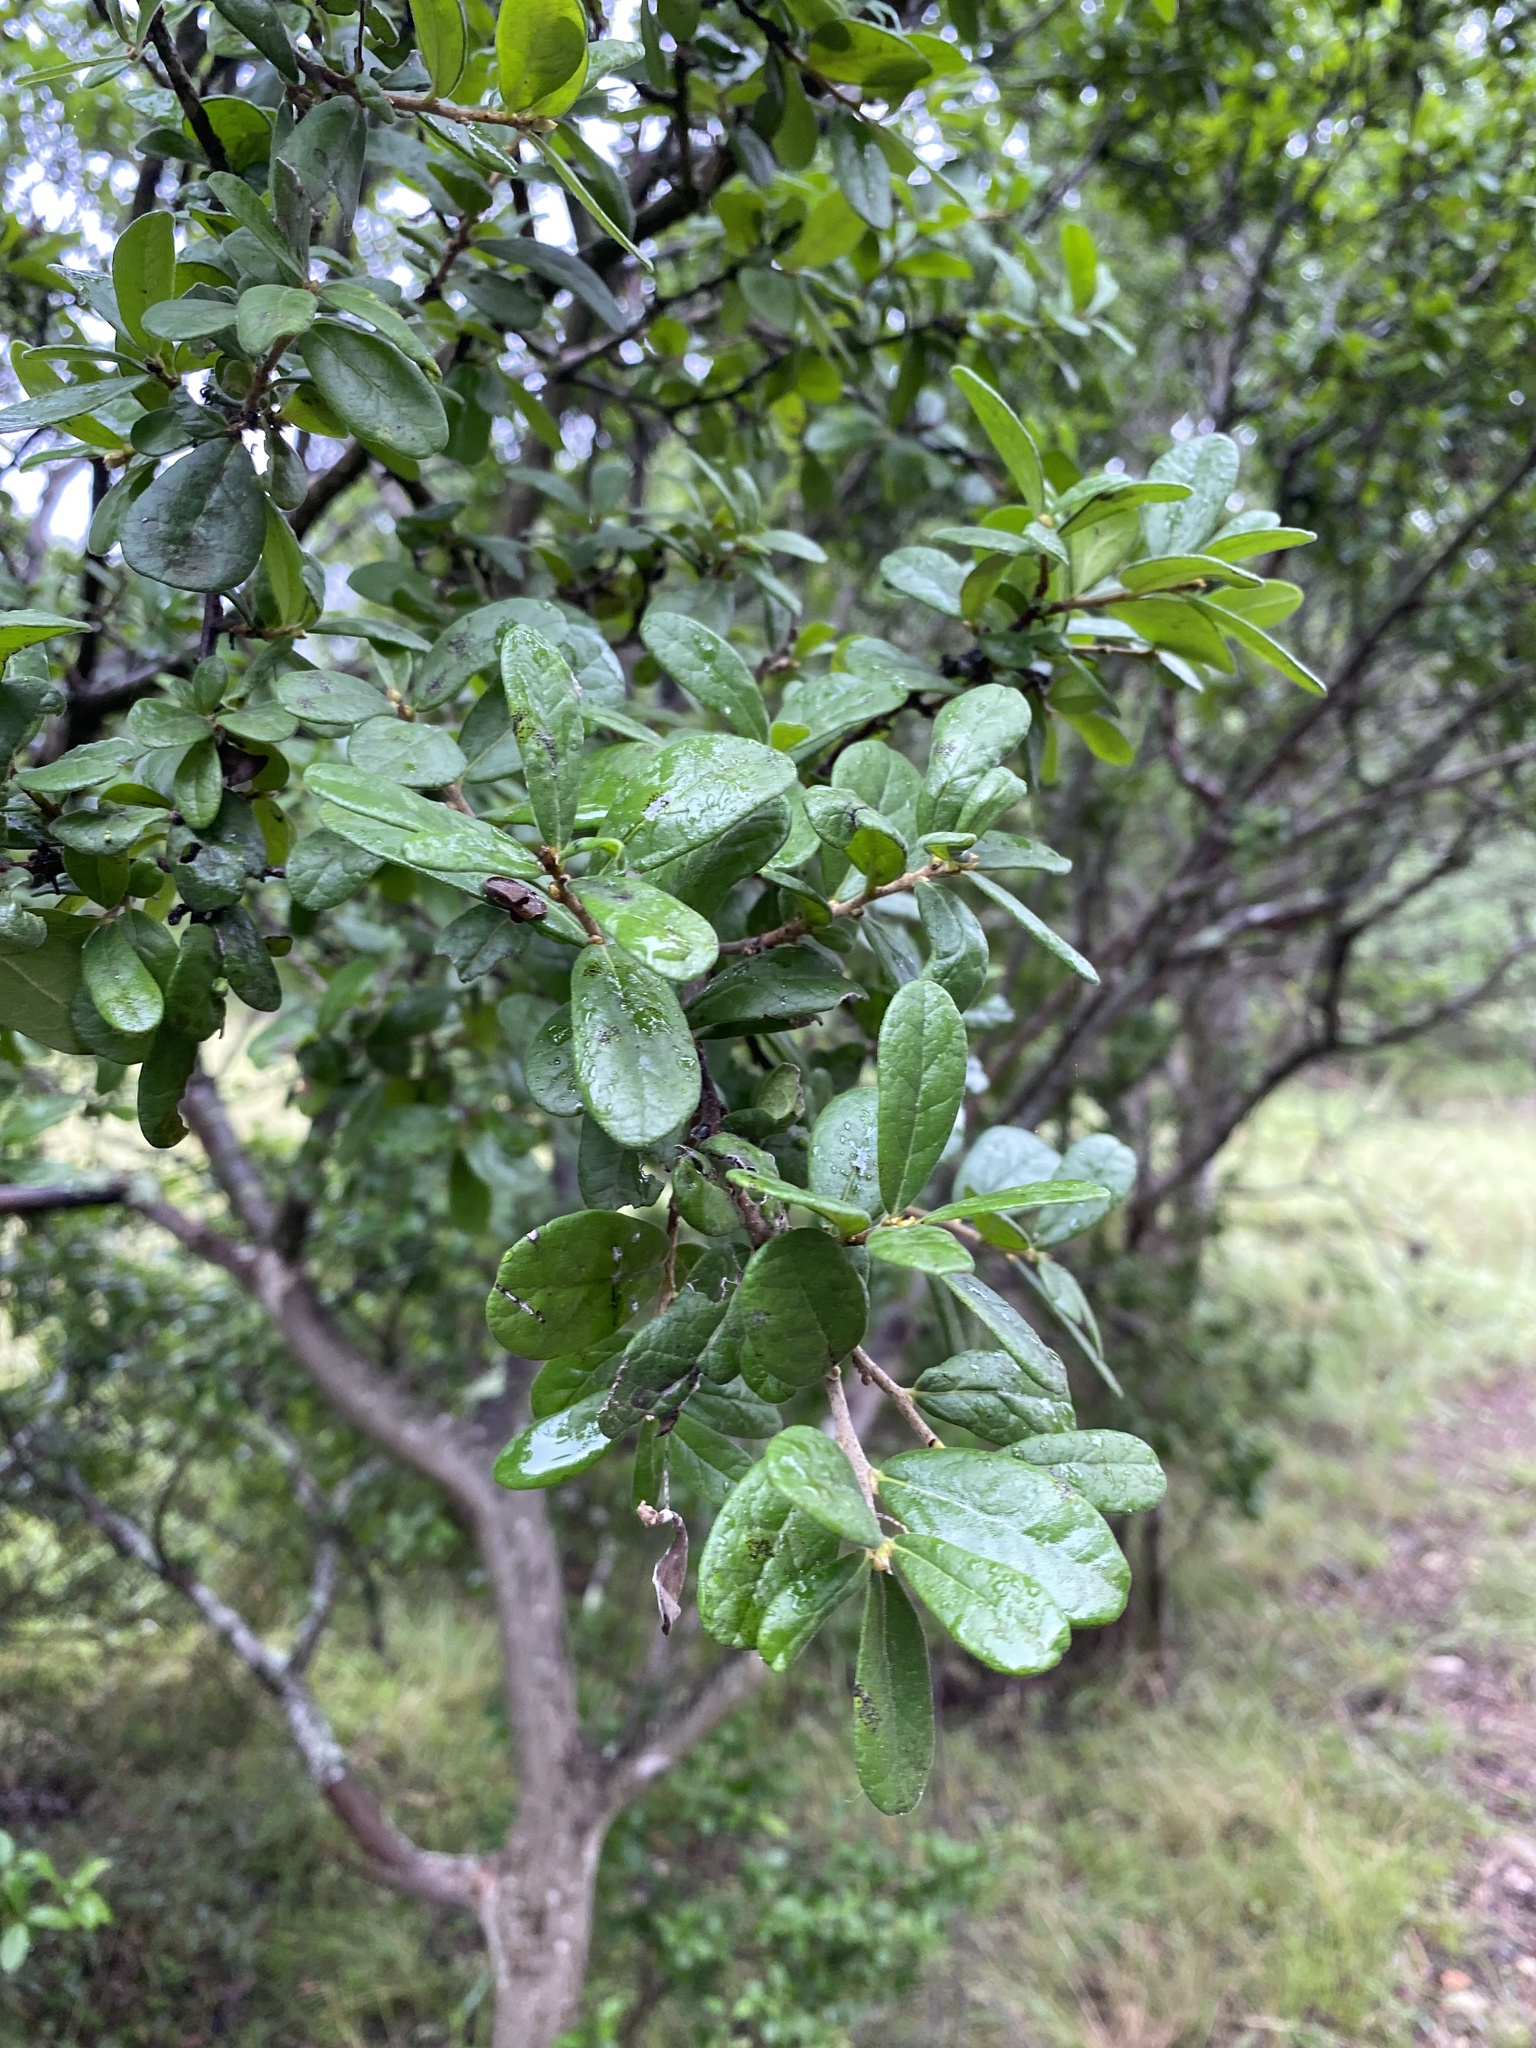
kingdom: Plantae
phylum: Tracheophyta
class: Magnoliopsida
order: Ericales
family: Ebenaceae
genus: Diospyros
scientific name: Diospyros texana
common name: Texas persimmon
